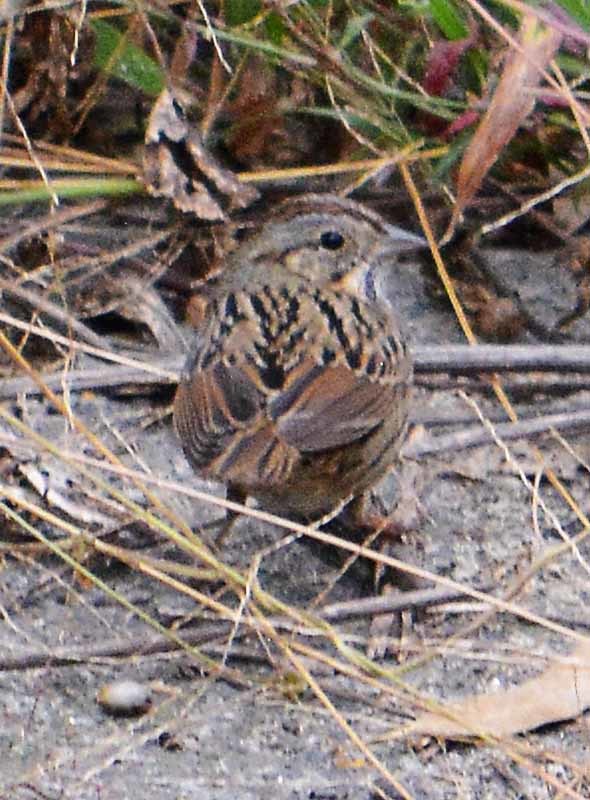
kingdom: Animalia
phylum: Chordata
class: Aves
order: Passeriformes
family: Passerellidae
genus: Melospiza
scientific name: Melospiza lincolnii
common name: Lincoln's sparrow
